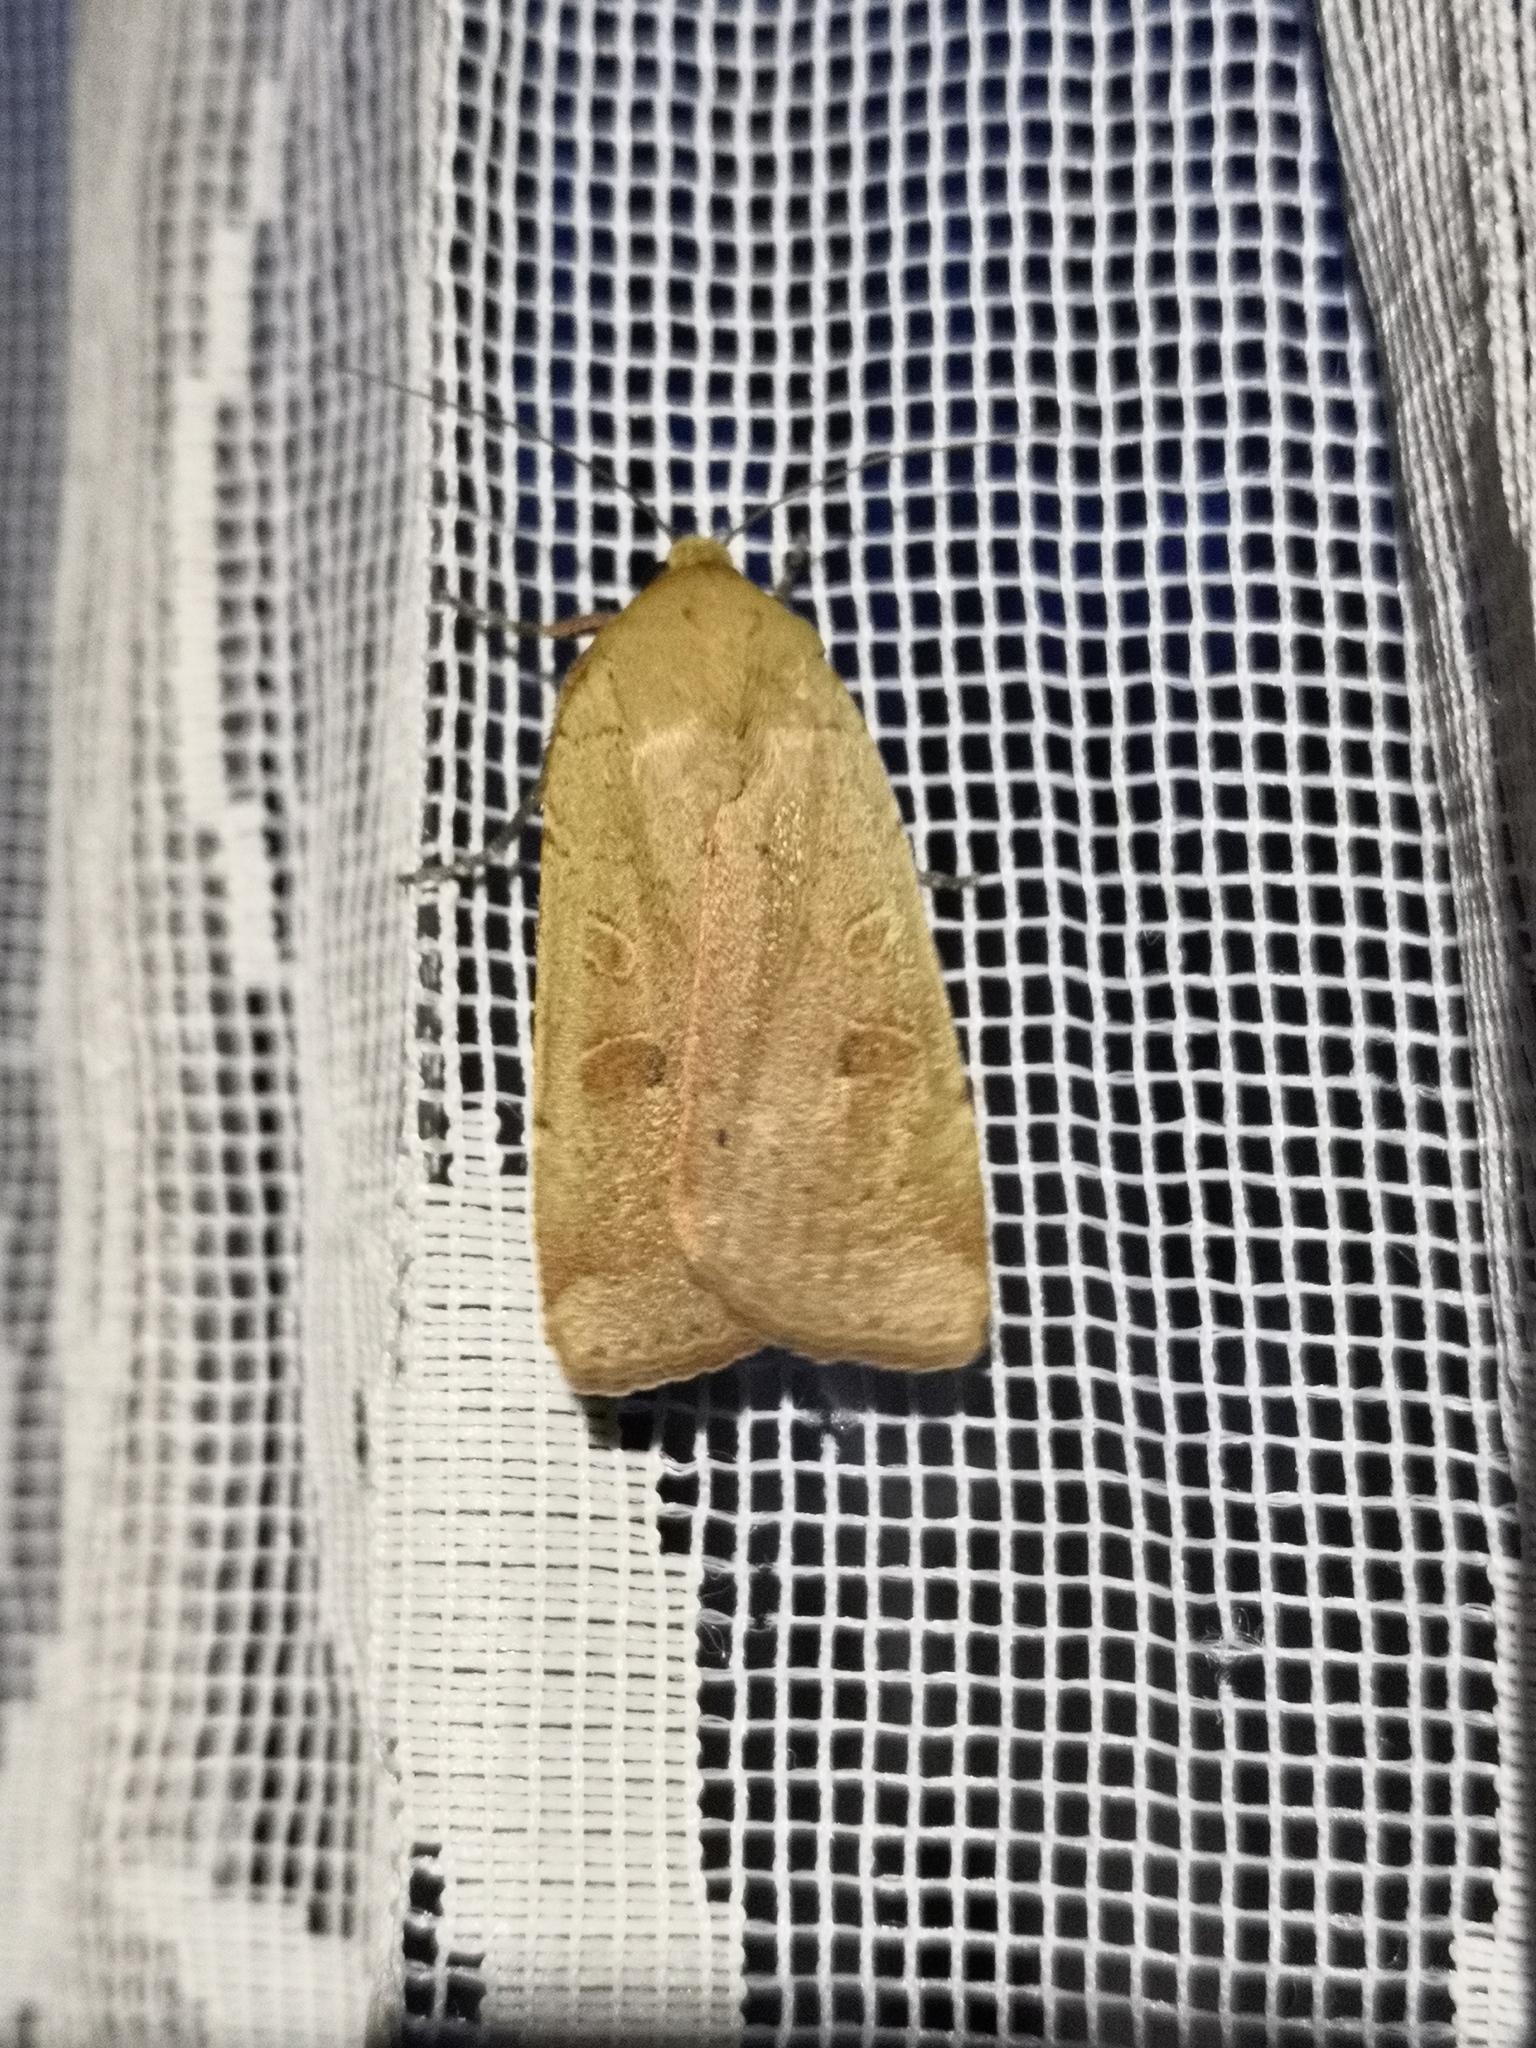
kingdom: Animalia
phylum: Arthropoda
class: Insecta
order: Lepidoptera
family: Noctuidae
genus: Noctua
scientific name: Noctua comes
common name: Lesser yellow underwing
